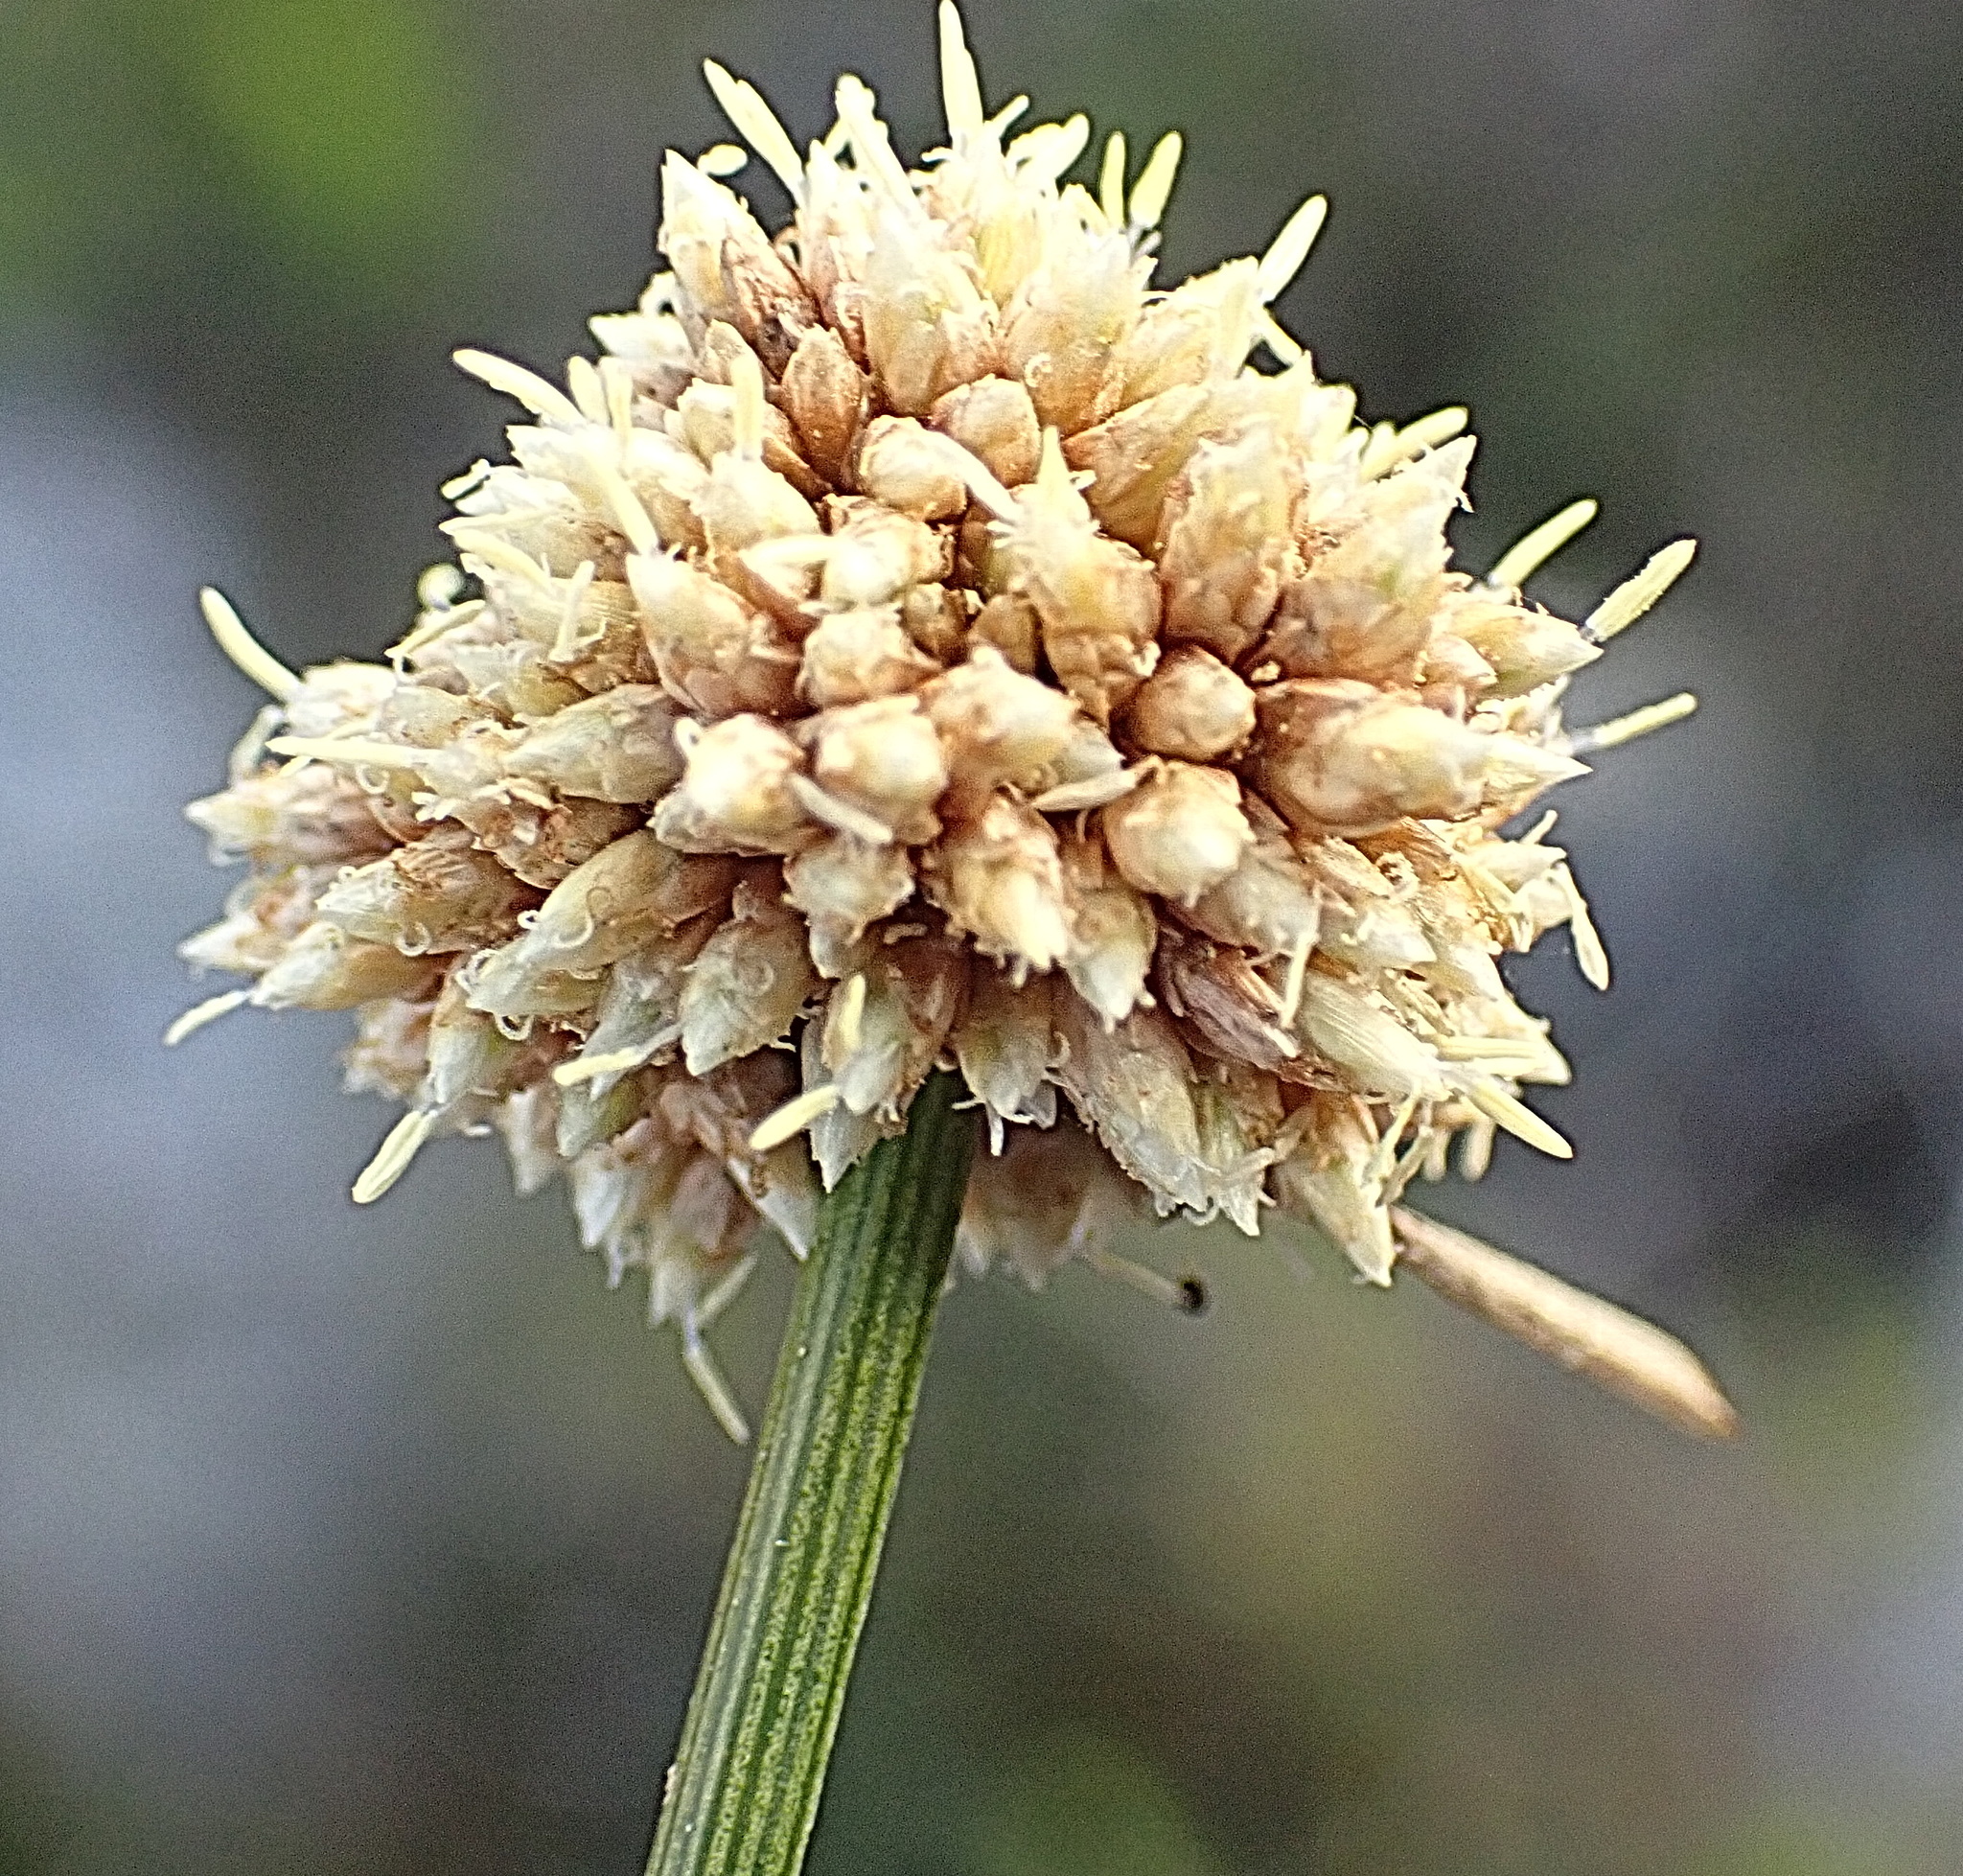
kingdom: Plantae
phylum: Tracheophyta
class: Liliopsida
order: Poales
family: Cyperaceae
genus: Ficinia
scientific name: Ficinia truncata
